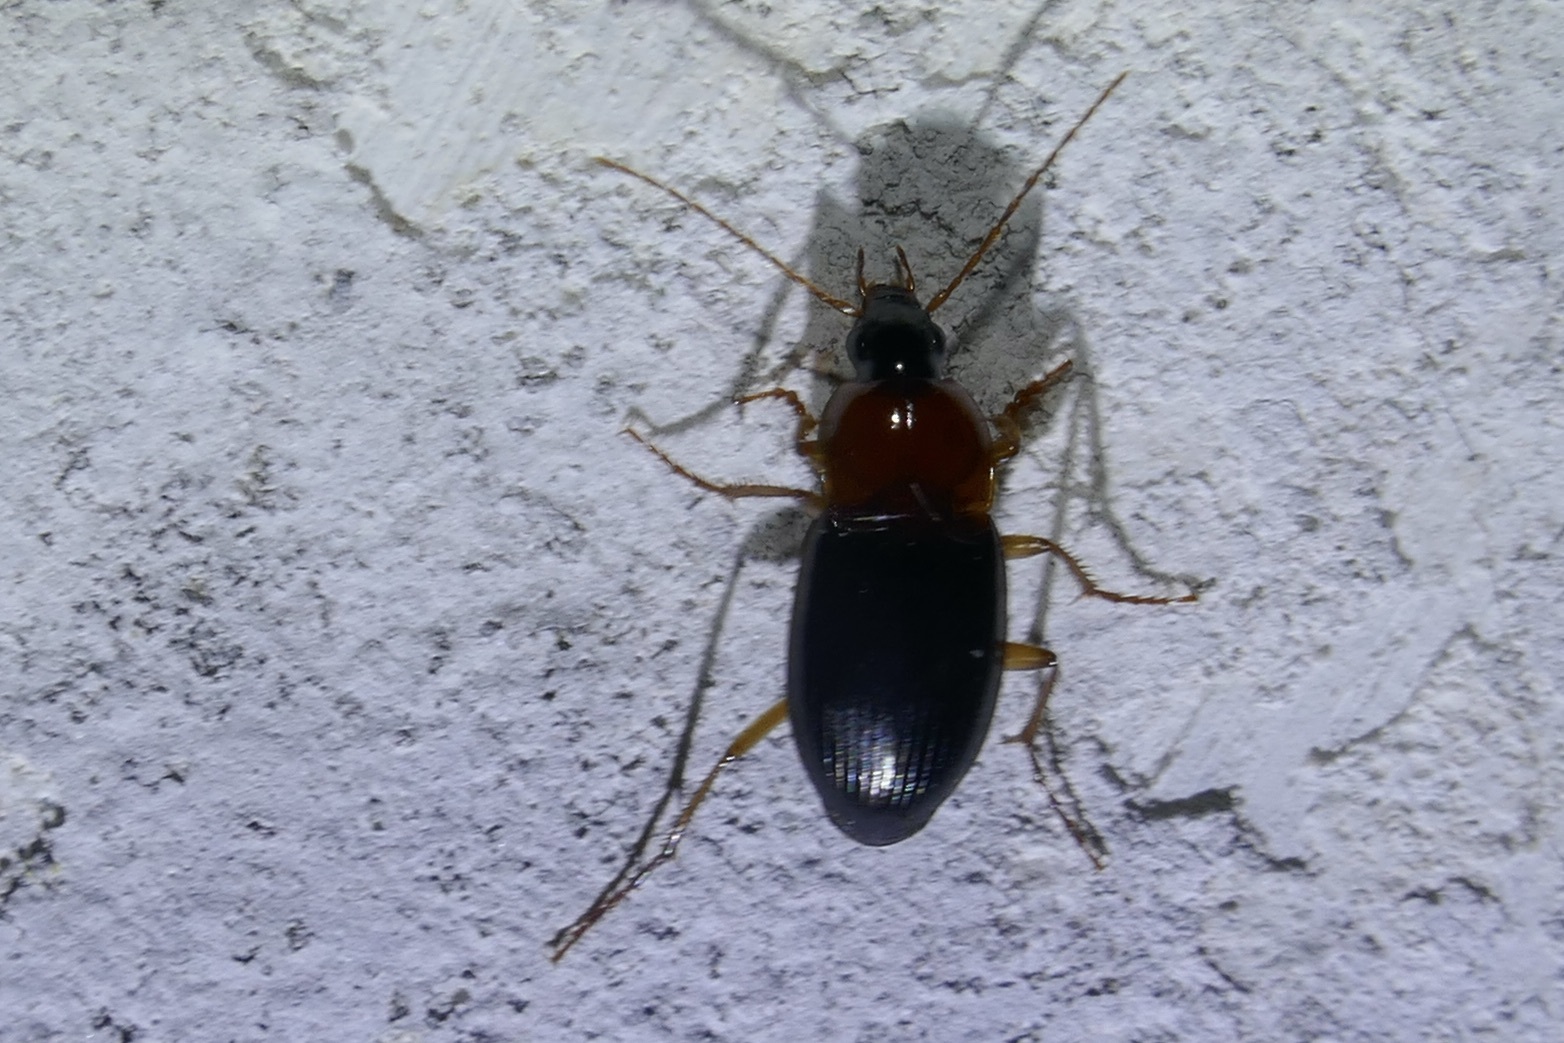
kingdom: Animalia
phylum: Arthropoda
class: Insecta
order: Coleoptera
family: Carabidae
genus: Calathus
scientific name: Calathus melanocephalus
